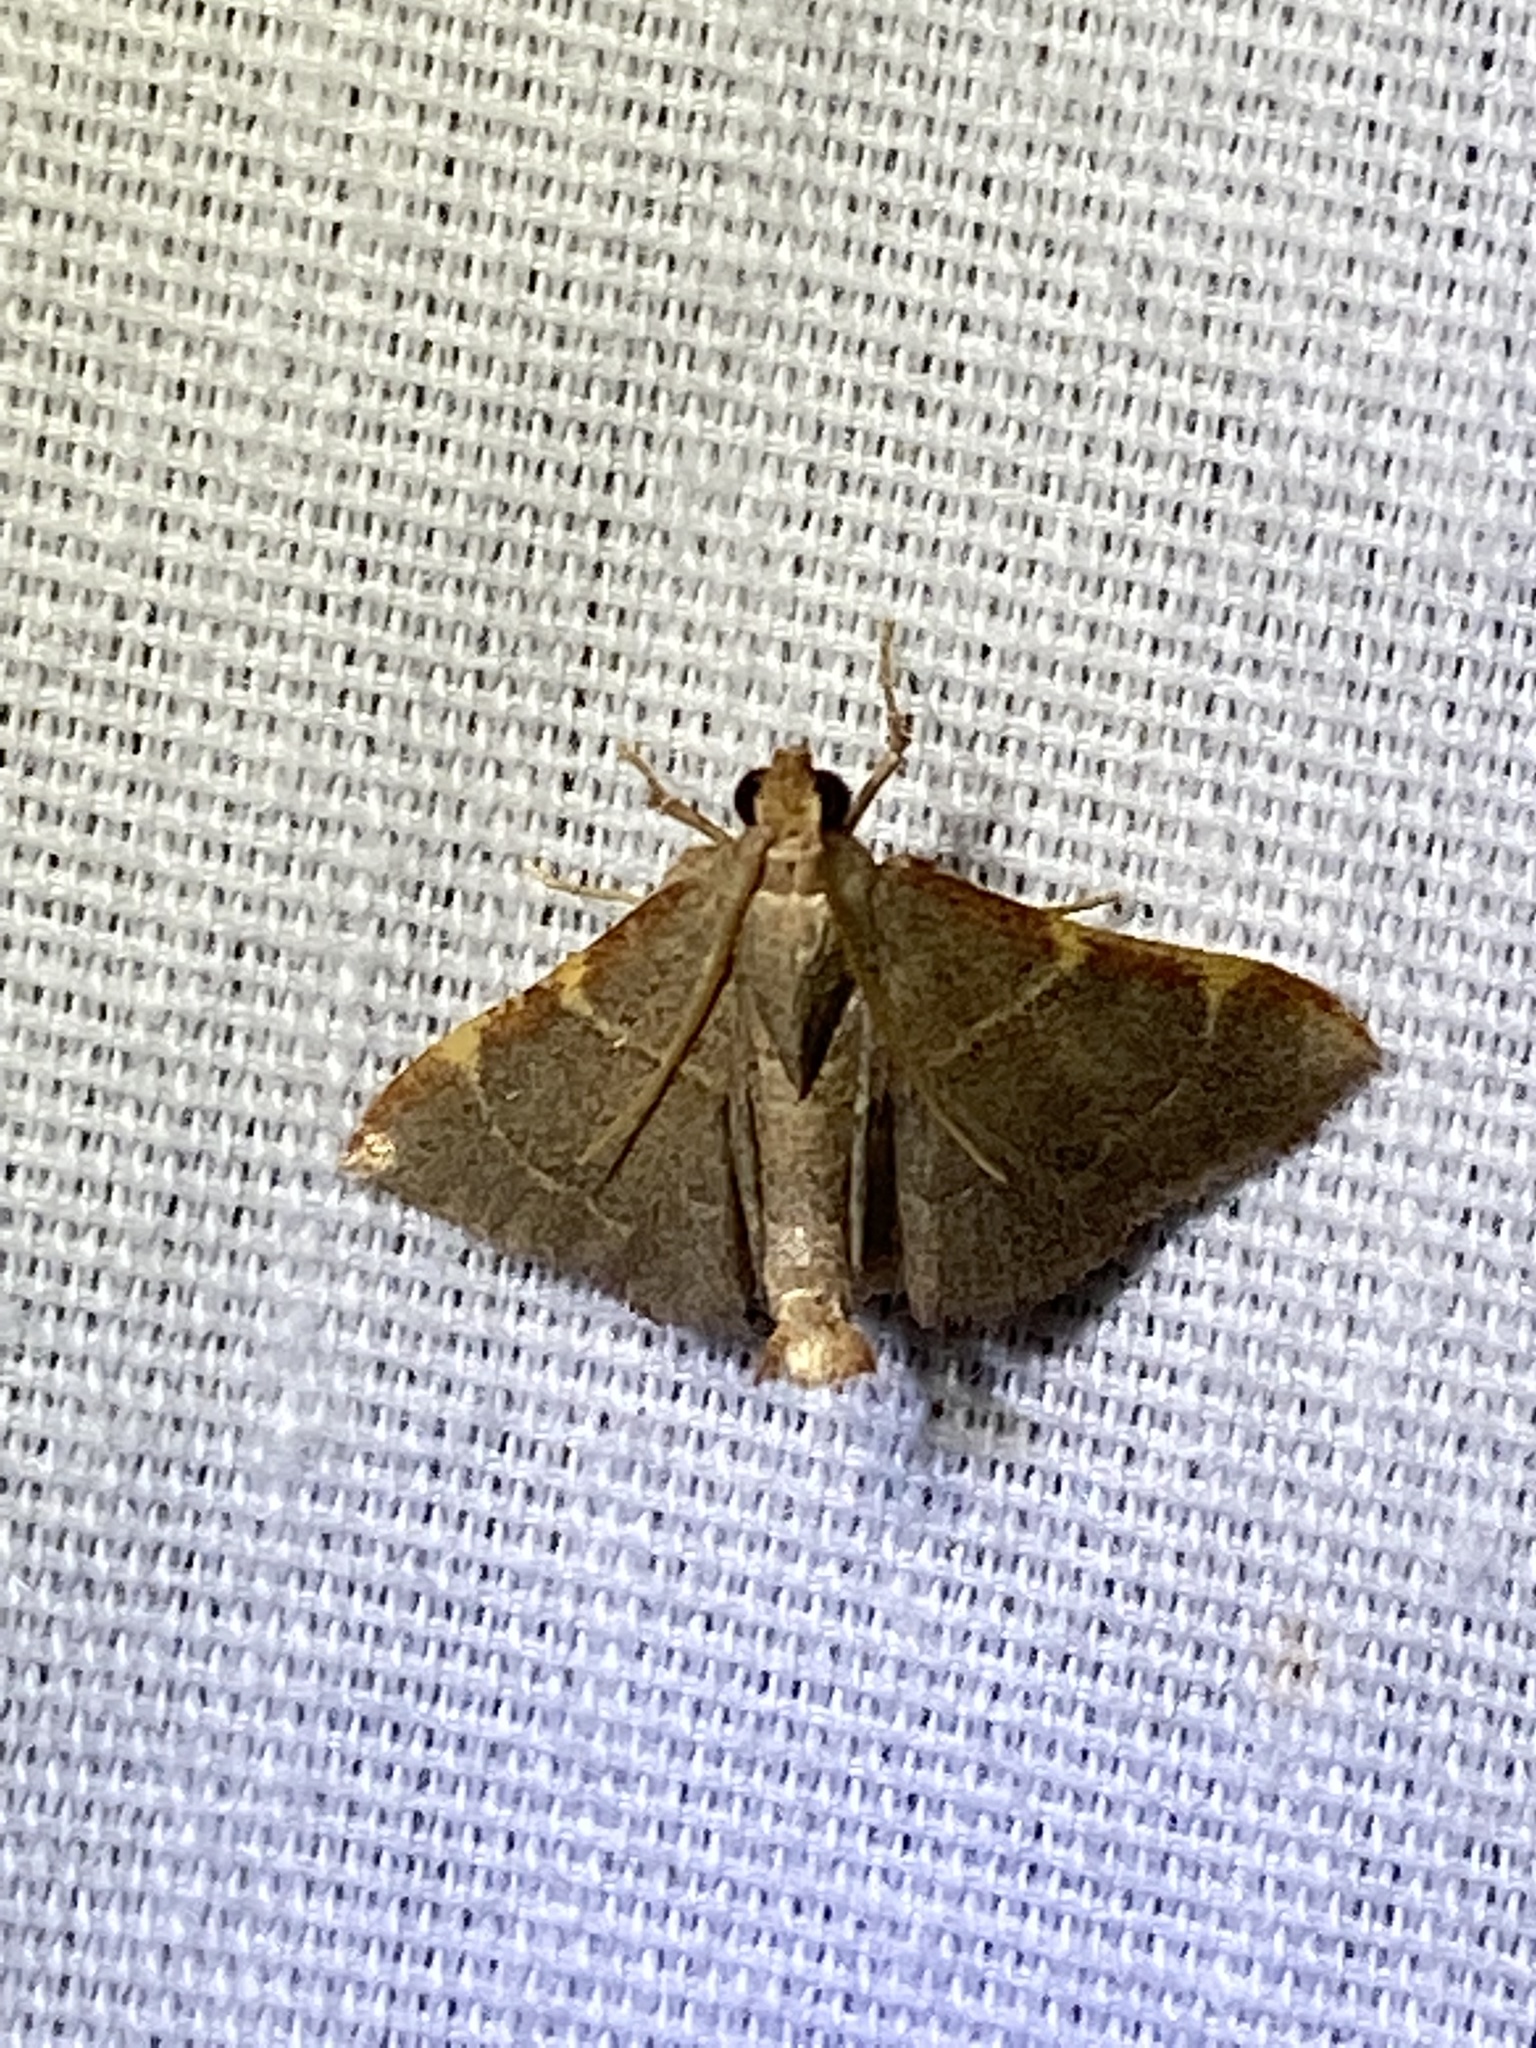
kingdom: Animalia
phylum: Arthropoda
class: Insecta
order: Lepidoptera
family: Pyralidae
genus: Hypsopygia
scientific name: Hypsopygia binodulalis
